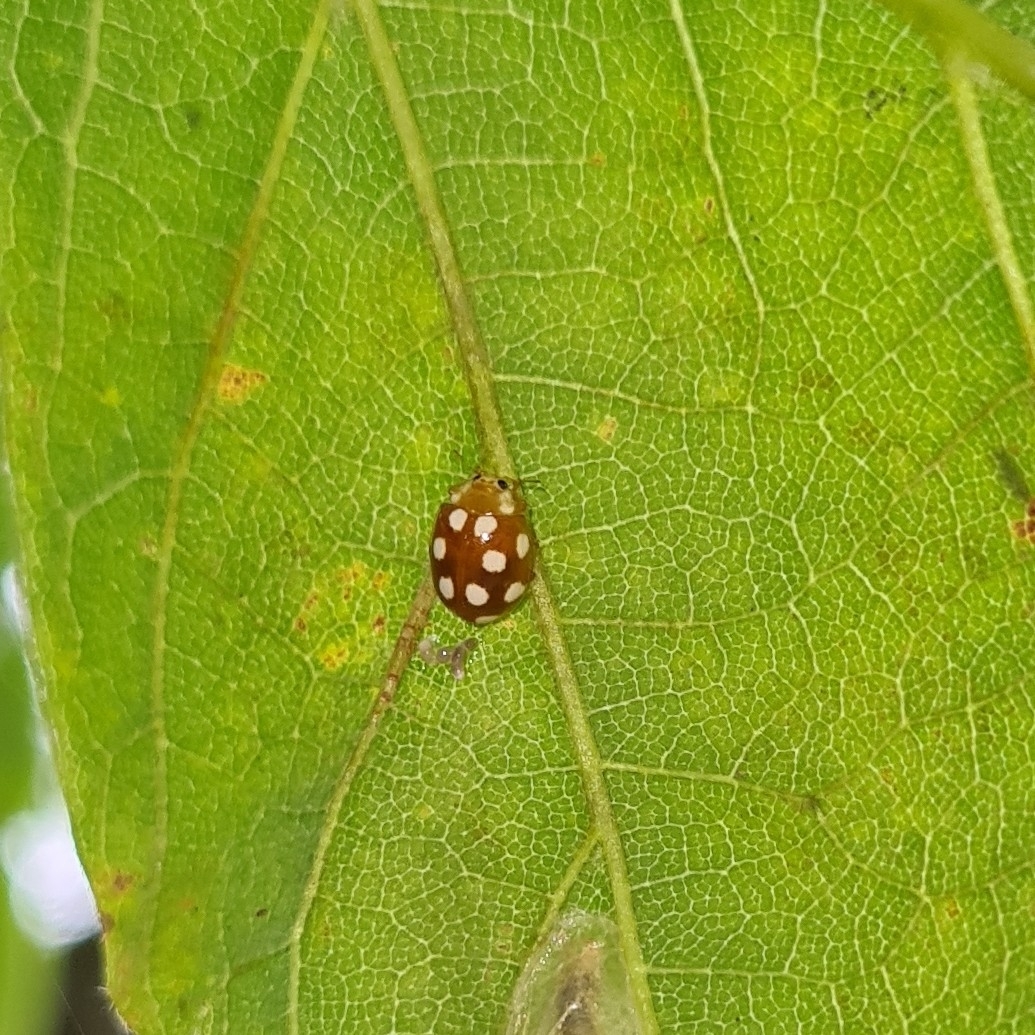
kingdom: Animalia
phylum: Arthropoda
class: Insecta
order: Coleoptera
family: Coccinellidae
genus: Vibidia
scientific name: Vibidia duodecimguttata
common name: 12-spot ladybird
